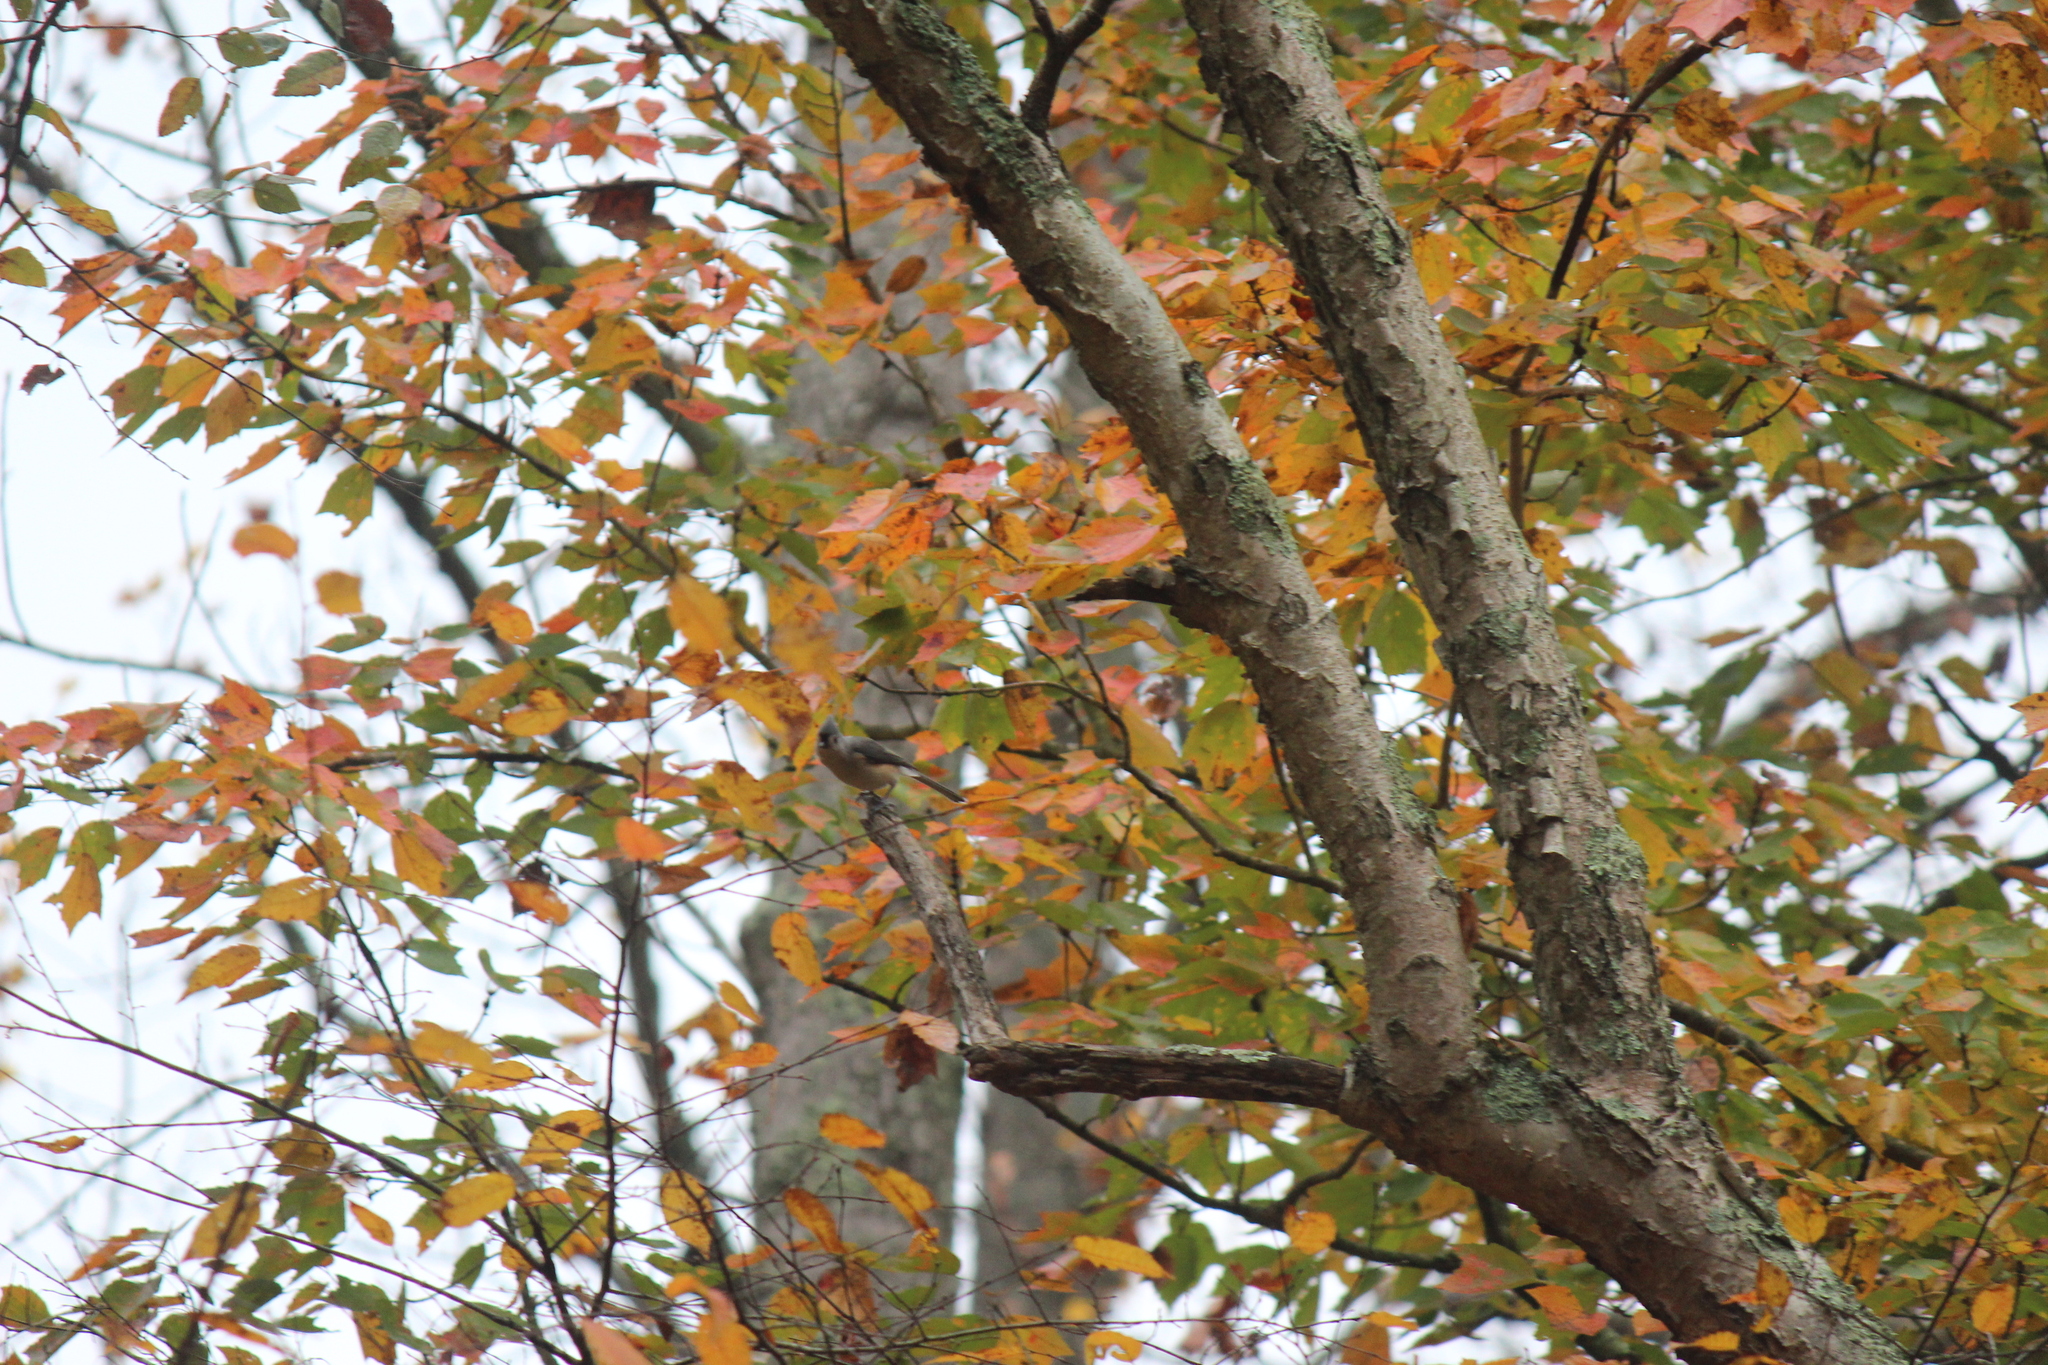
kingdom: Animalia
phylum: Chordata
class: Aves
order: Passeriformes
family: Paridae
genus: Baeolophus
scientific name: Baeolophus bicolor
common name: Tufted titmouse
